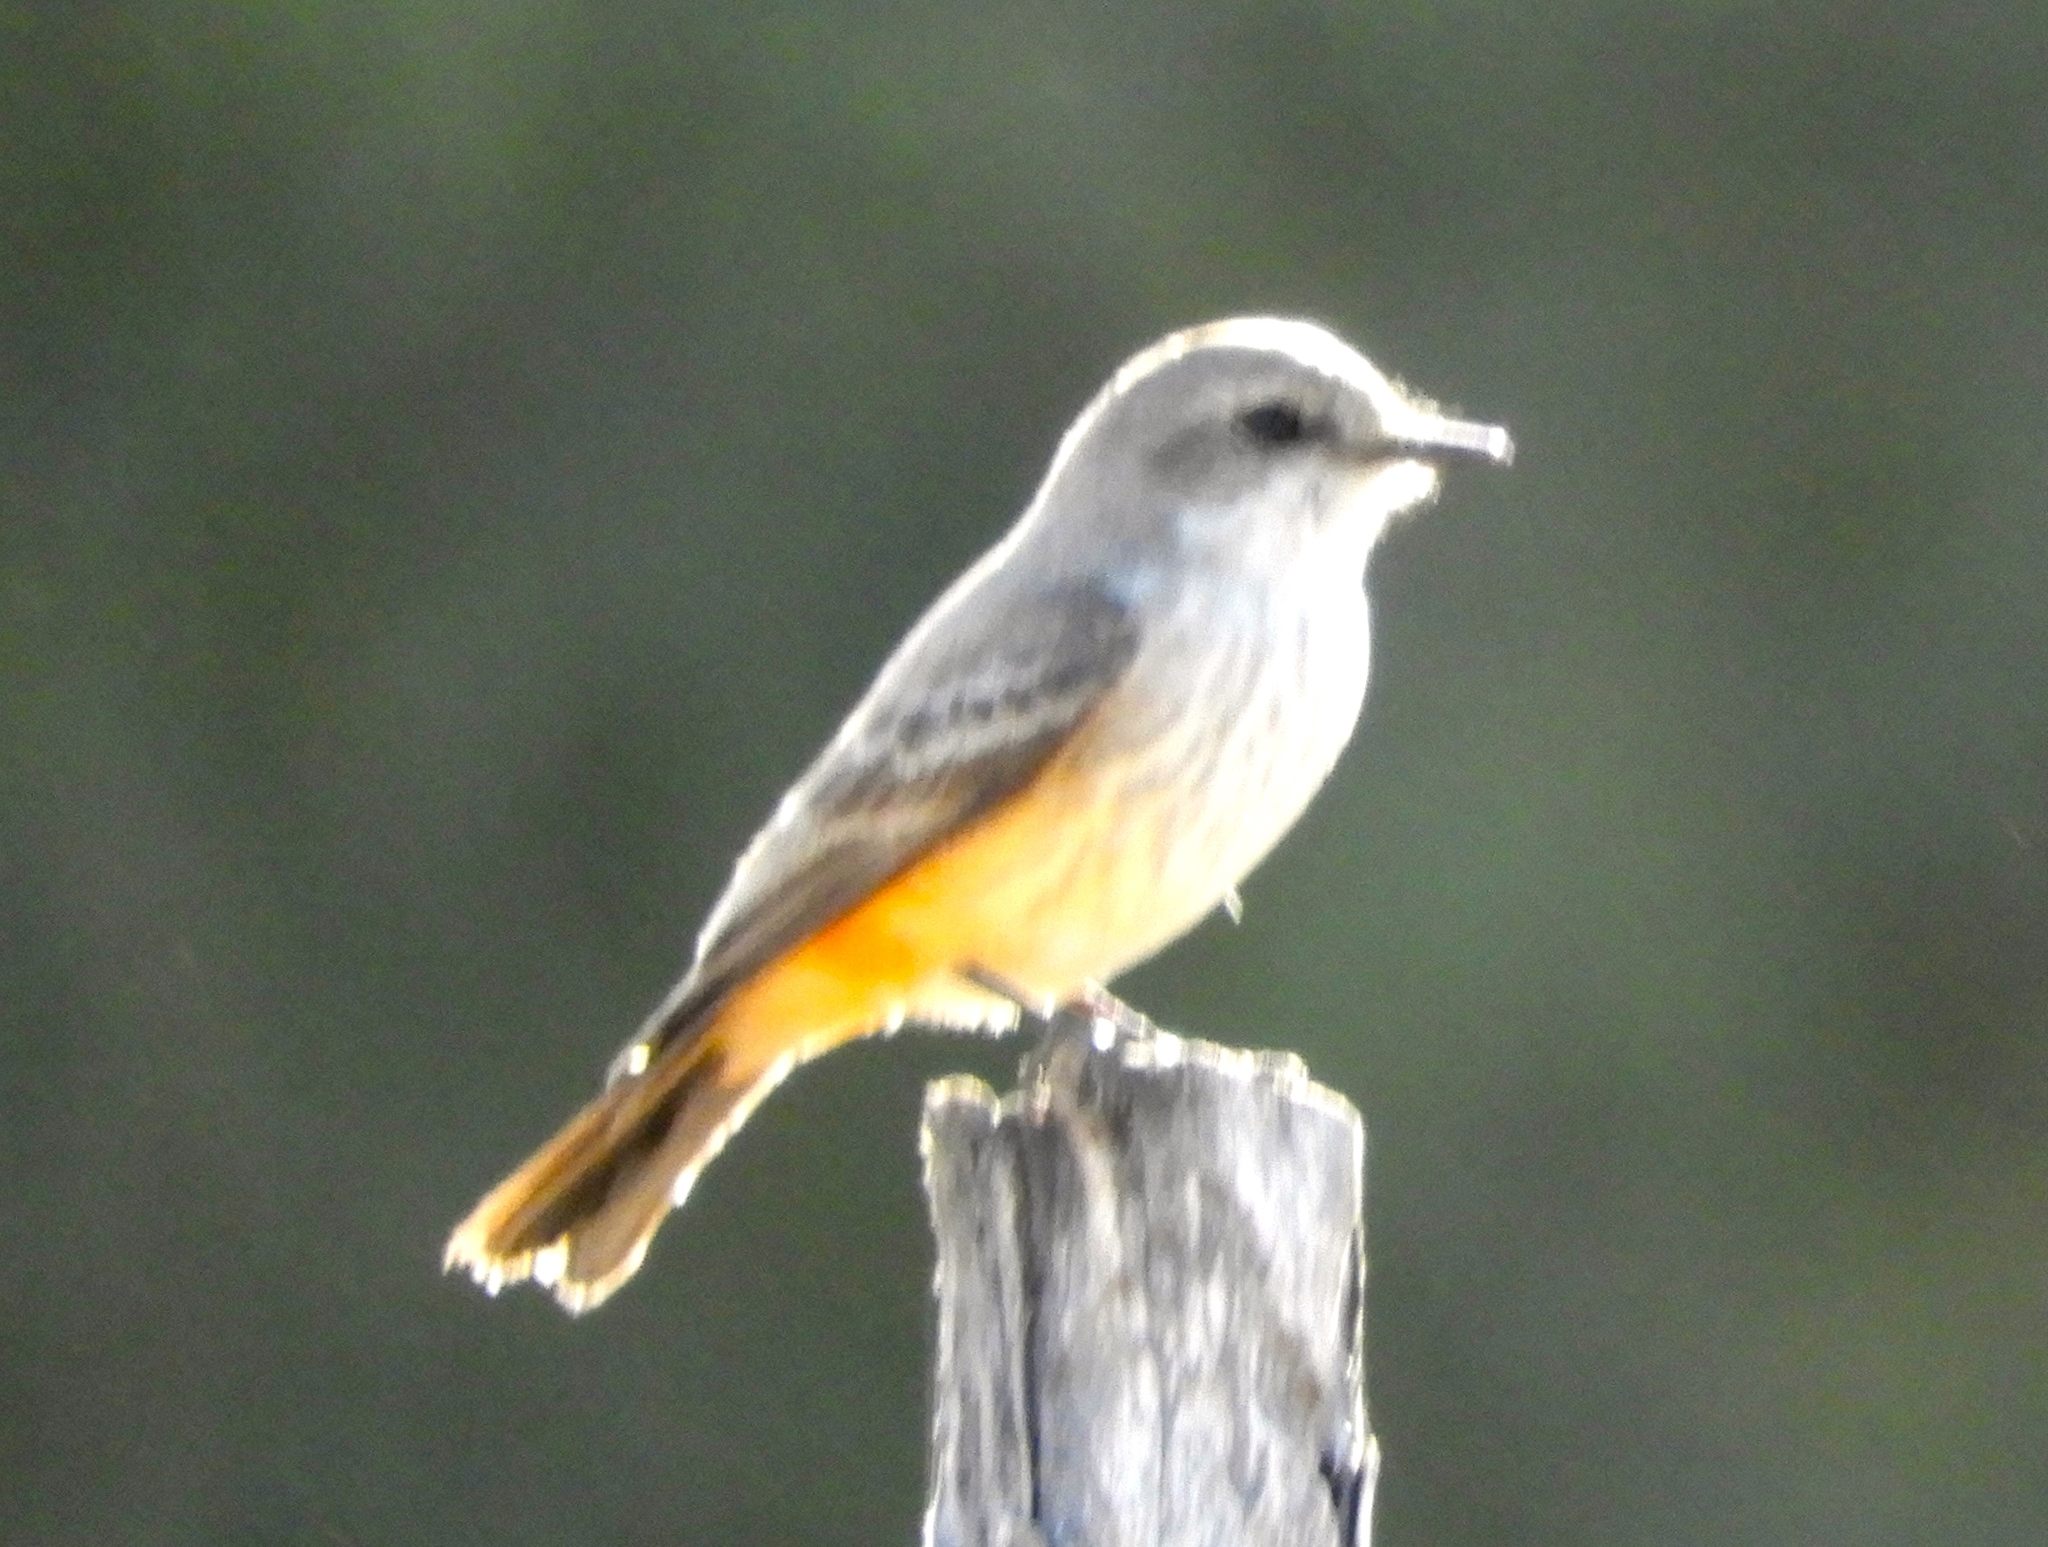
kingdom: Animalia
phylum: Chordata
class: Aves
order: Passeriformes
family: Tyrannidae
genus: Pyrocephalus
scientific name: Pyrocephalus rubinus
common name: Vermilion flycatcher
